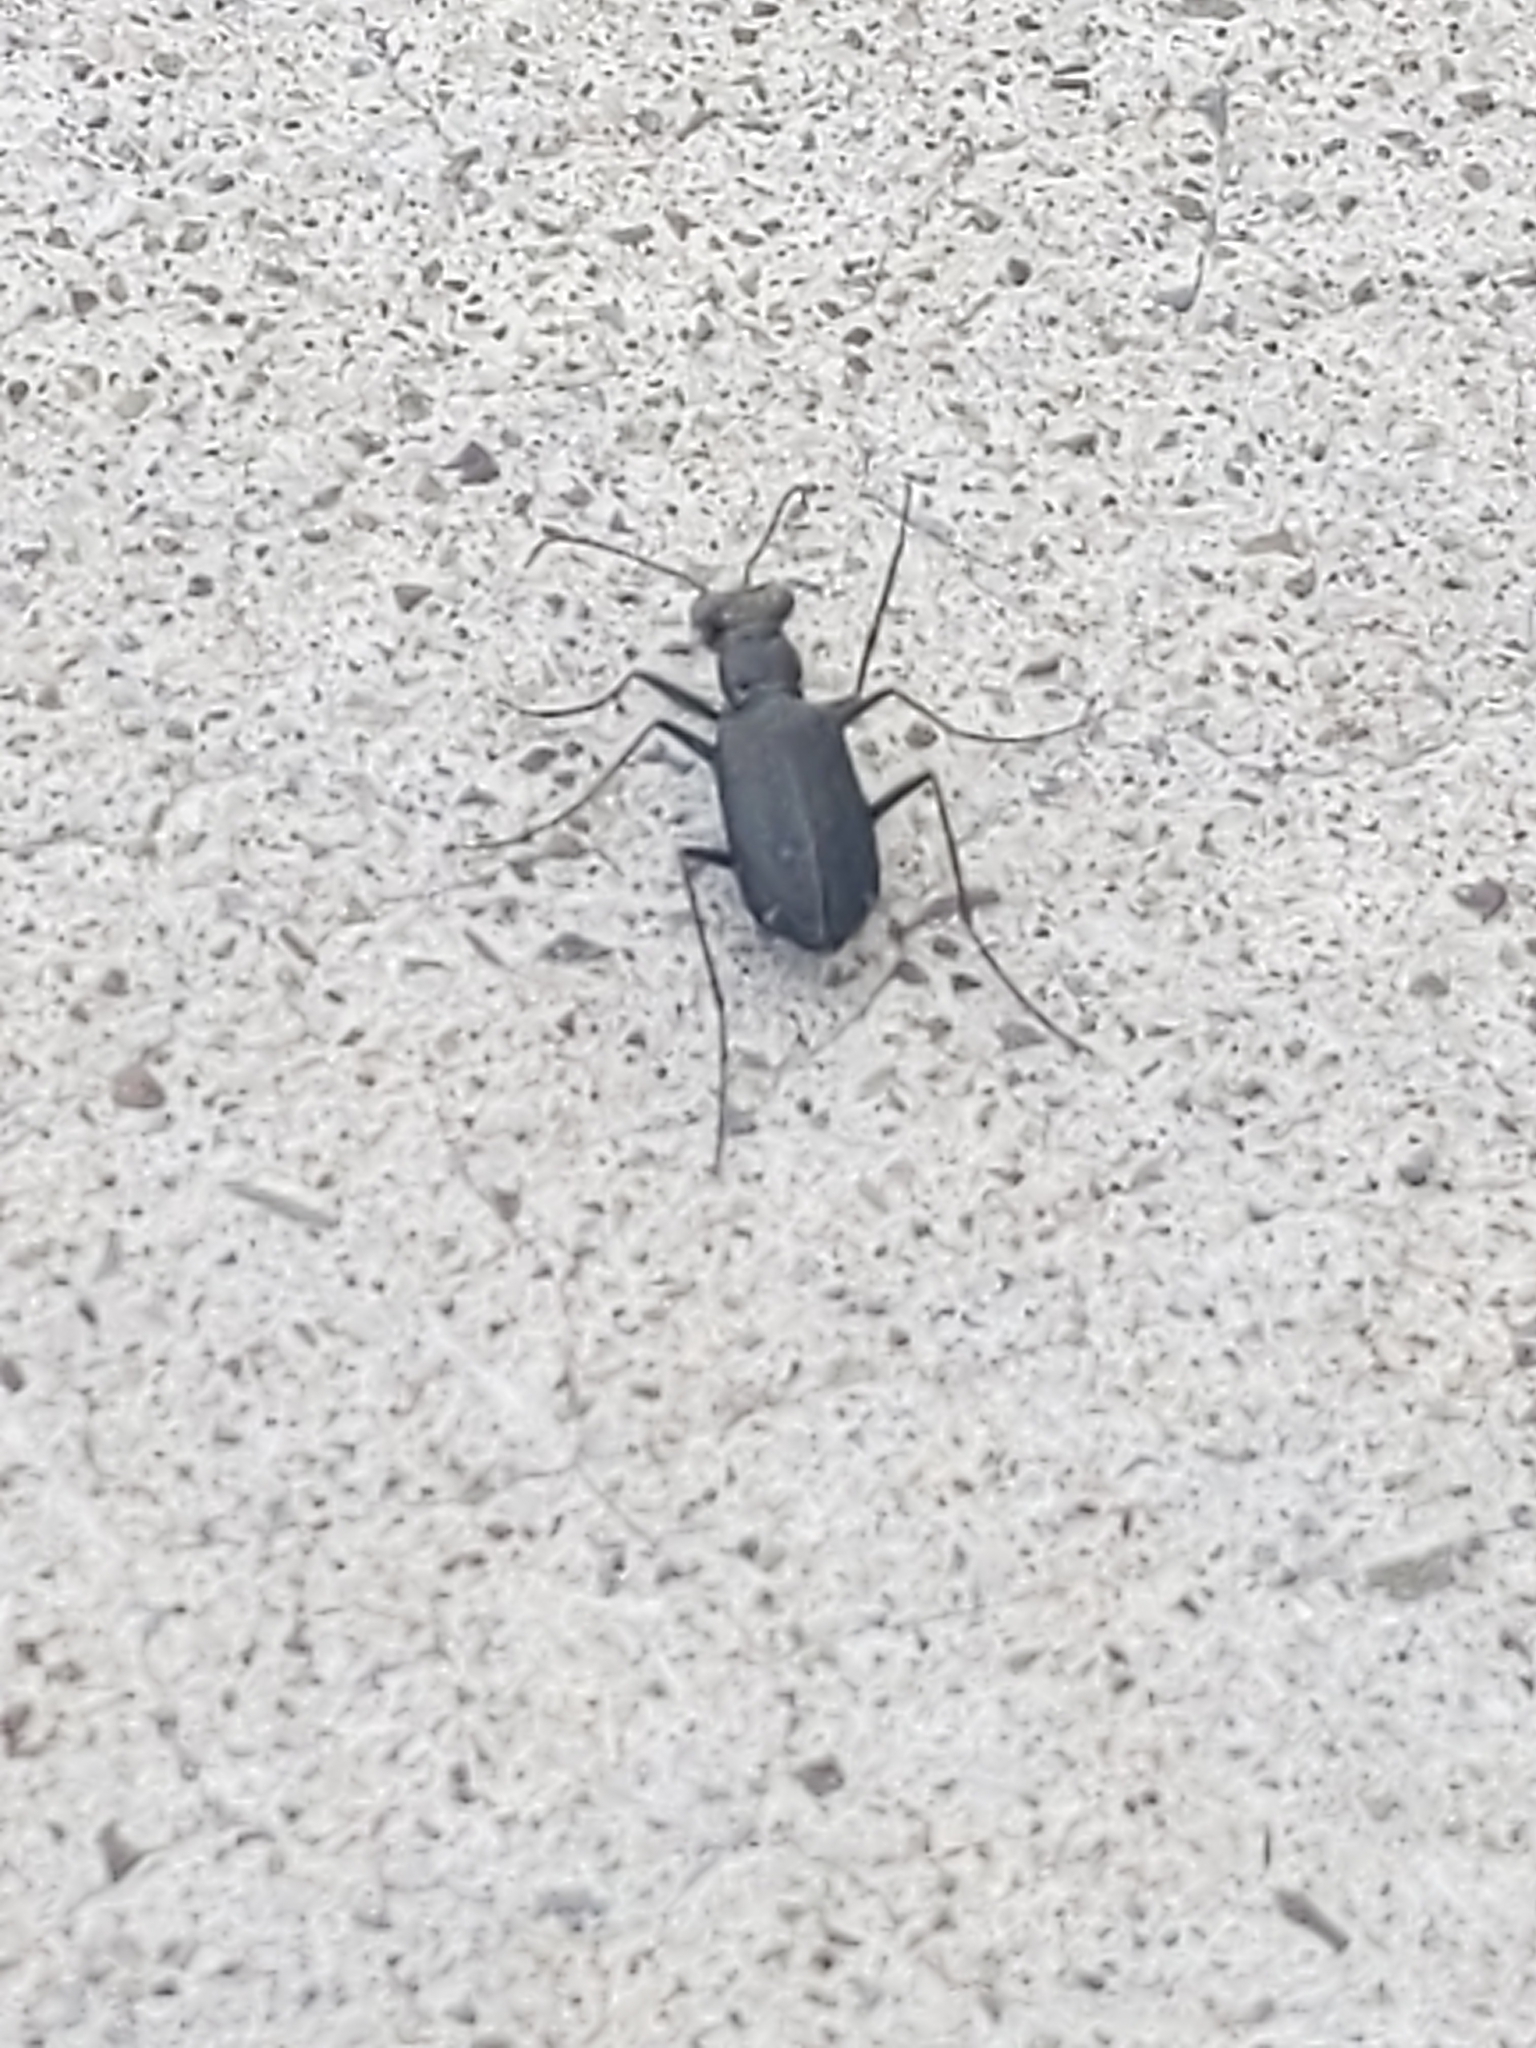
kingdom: Animalia
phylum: Arthropoda
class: Insecta
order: Coleoptera
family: Carabidae
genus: Cicindela
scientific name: Cicindela punctulata
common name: Punctured tiger beetle
